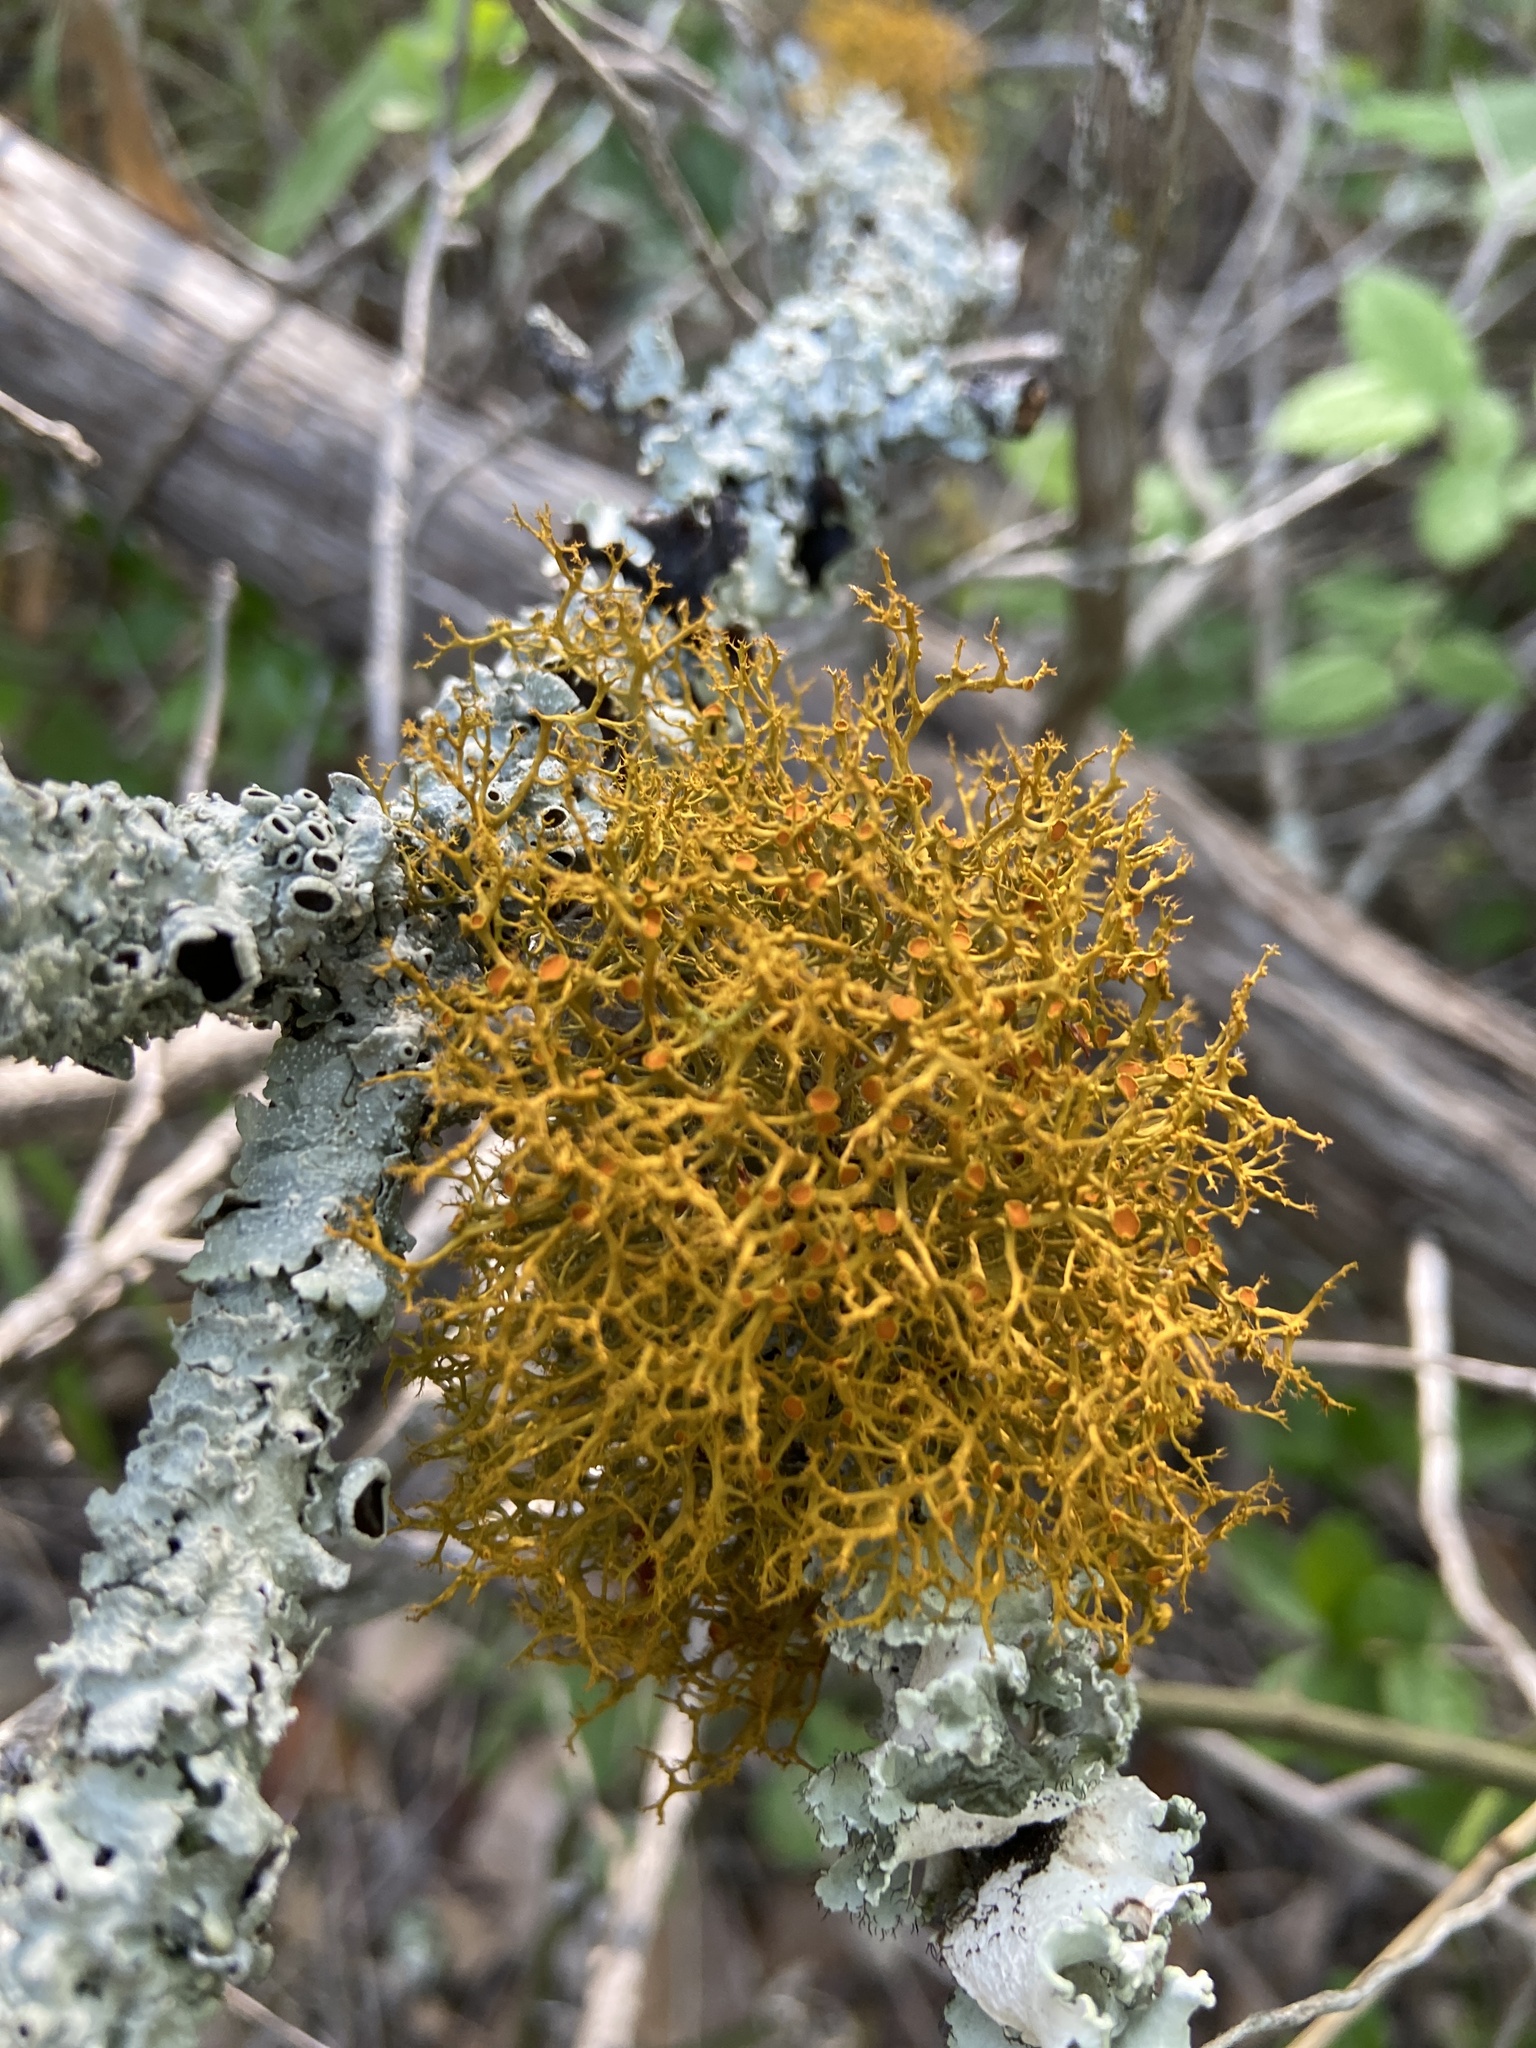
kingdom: Fungi
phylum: Ascomycota
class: Lecanoromycetes
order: Teloschistales
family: Teloschistaceae
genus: Teloschistes
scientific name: Teloschistes exilis
